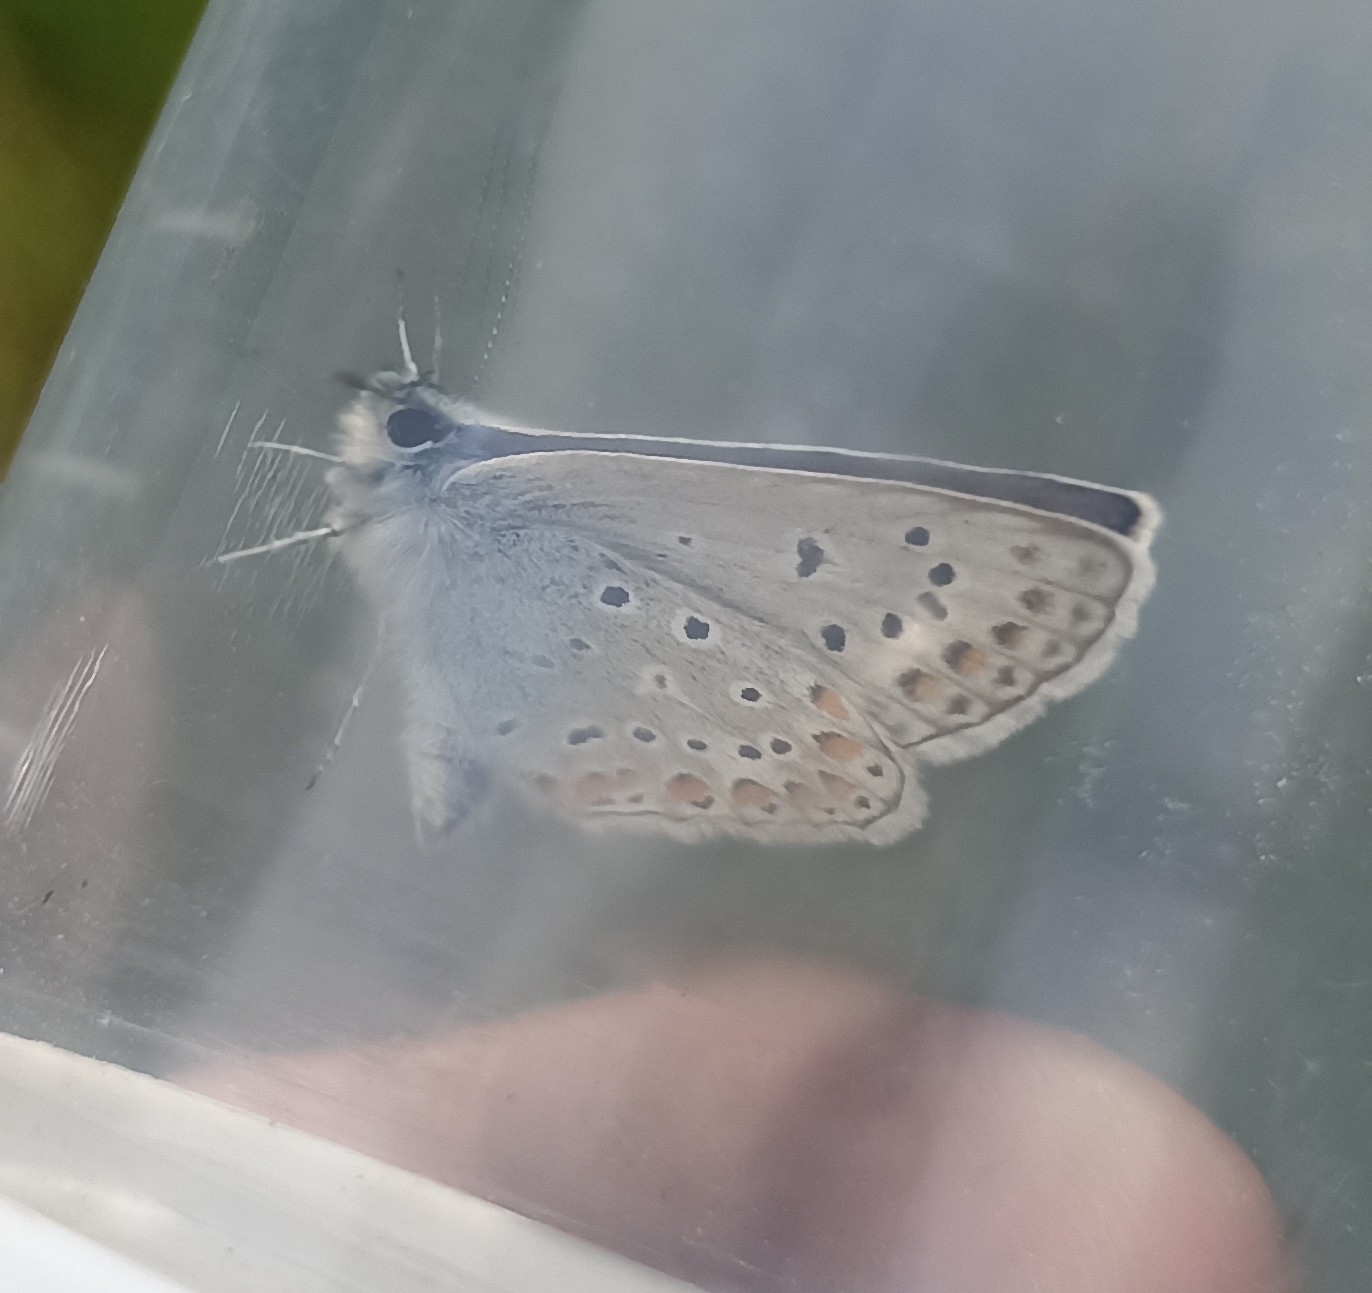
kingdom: Animalia
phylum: Arthropoda
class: Insecta
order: Lepidoptera
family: Lycaenidae
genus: Polyommatus
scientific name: Polyommatus icarus
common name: Common blue
